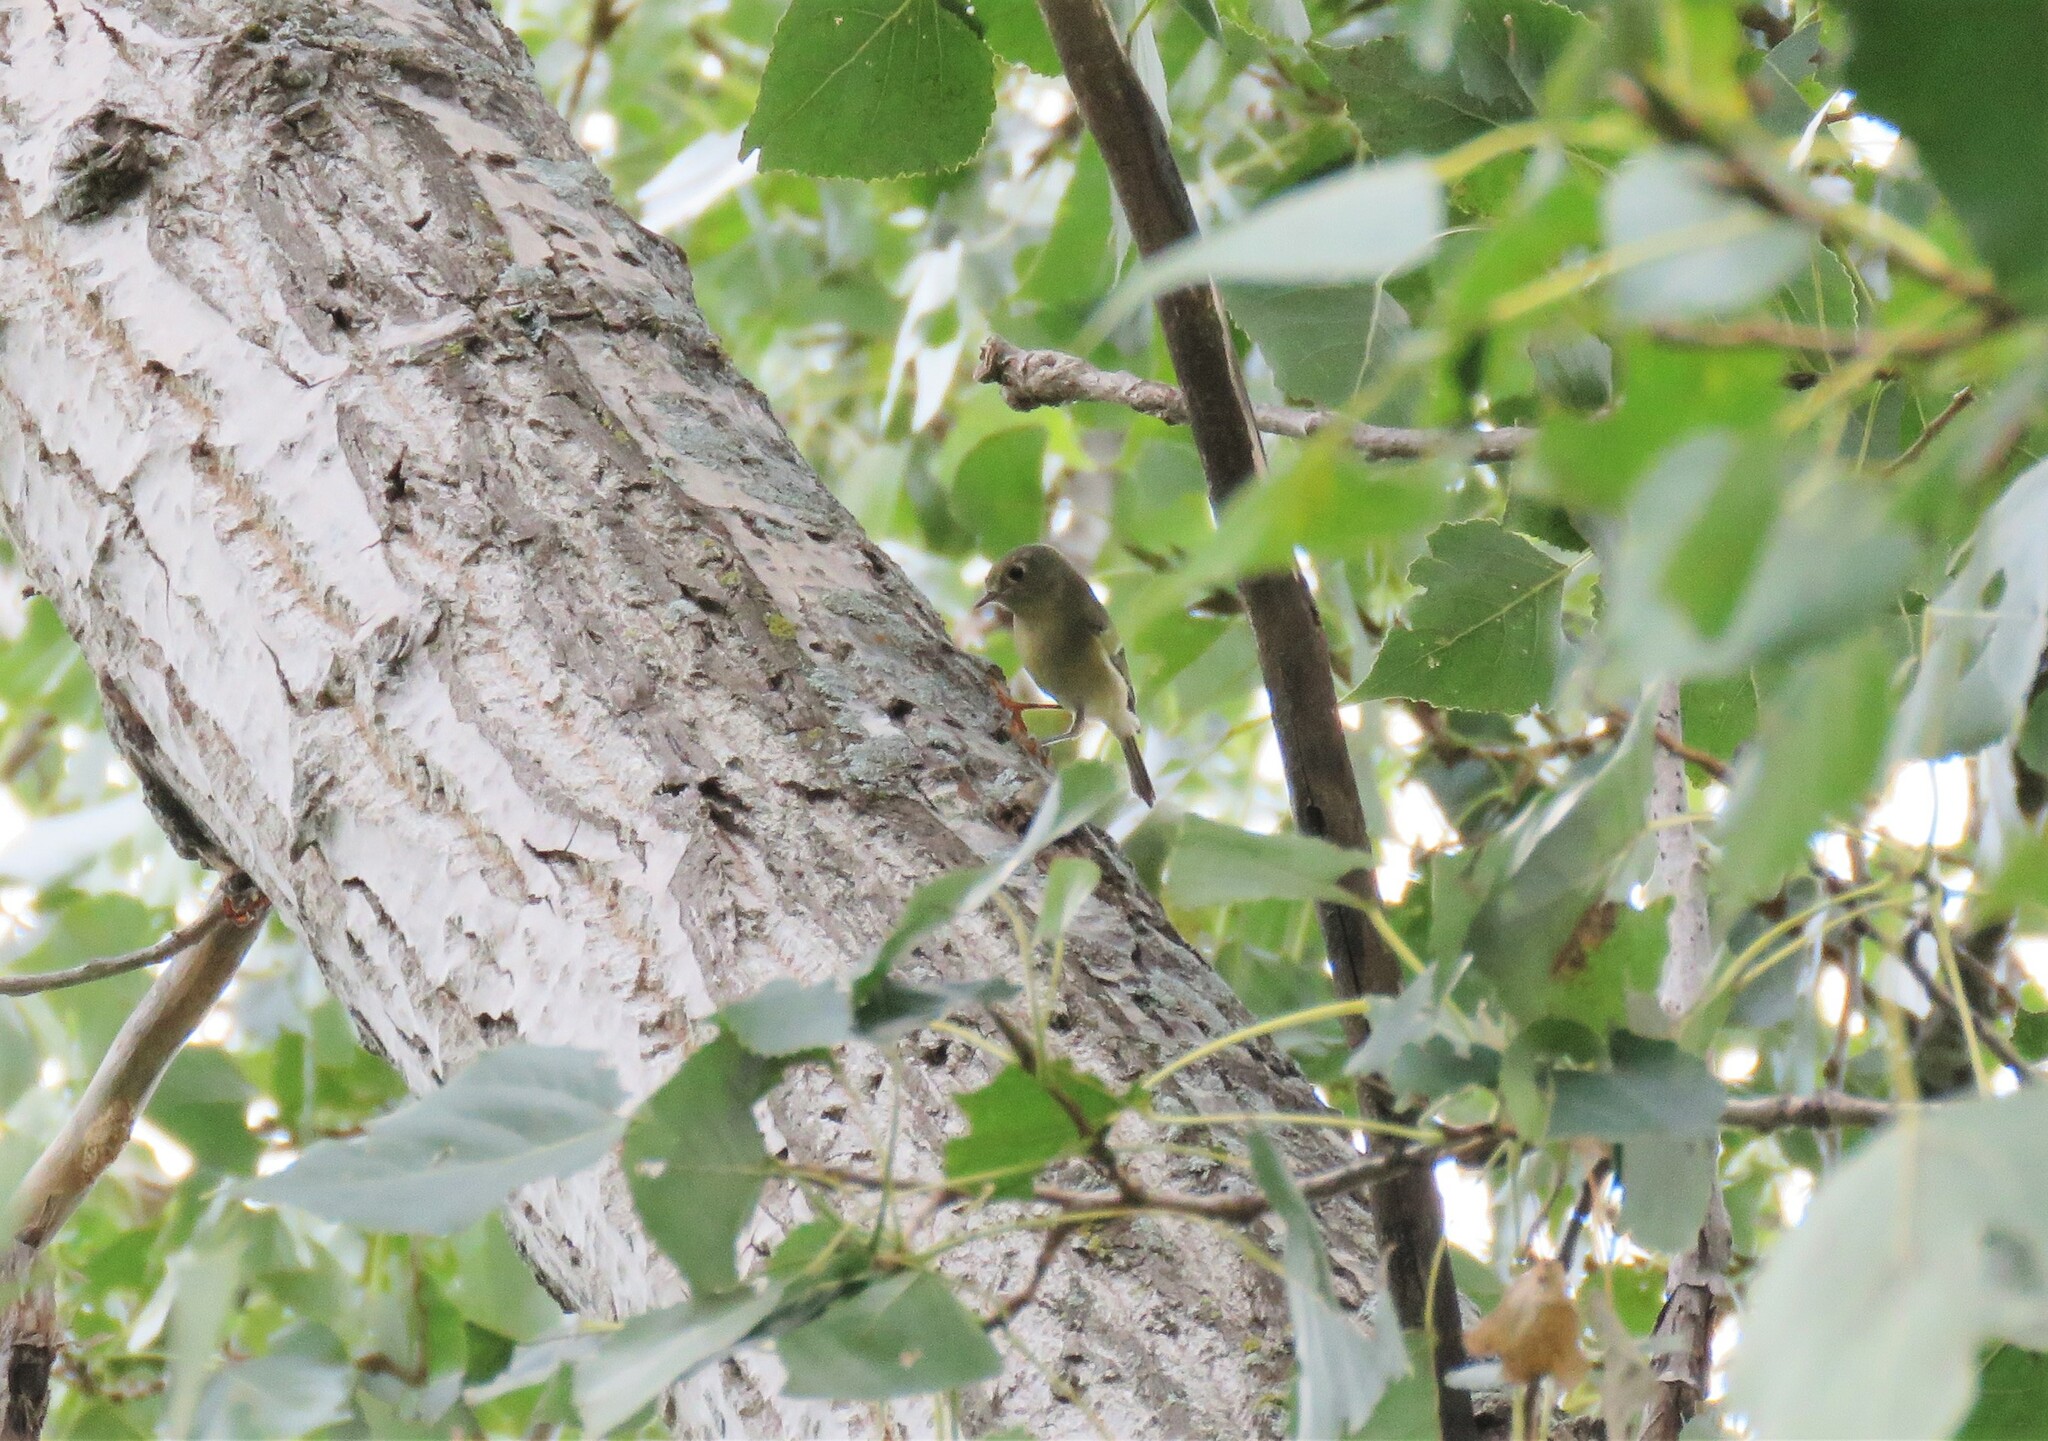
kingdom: Animalia
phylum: Chordata
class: Aves
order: Passeriformes
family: Regulidae
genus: Regulus
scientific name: Regulus calendula
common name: Ruby-crowned kinglet
